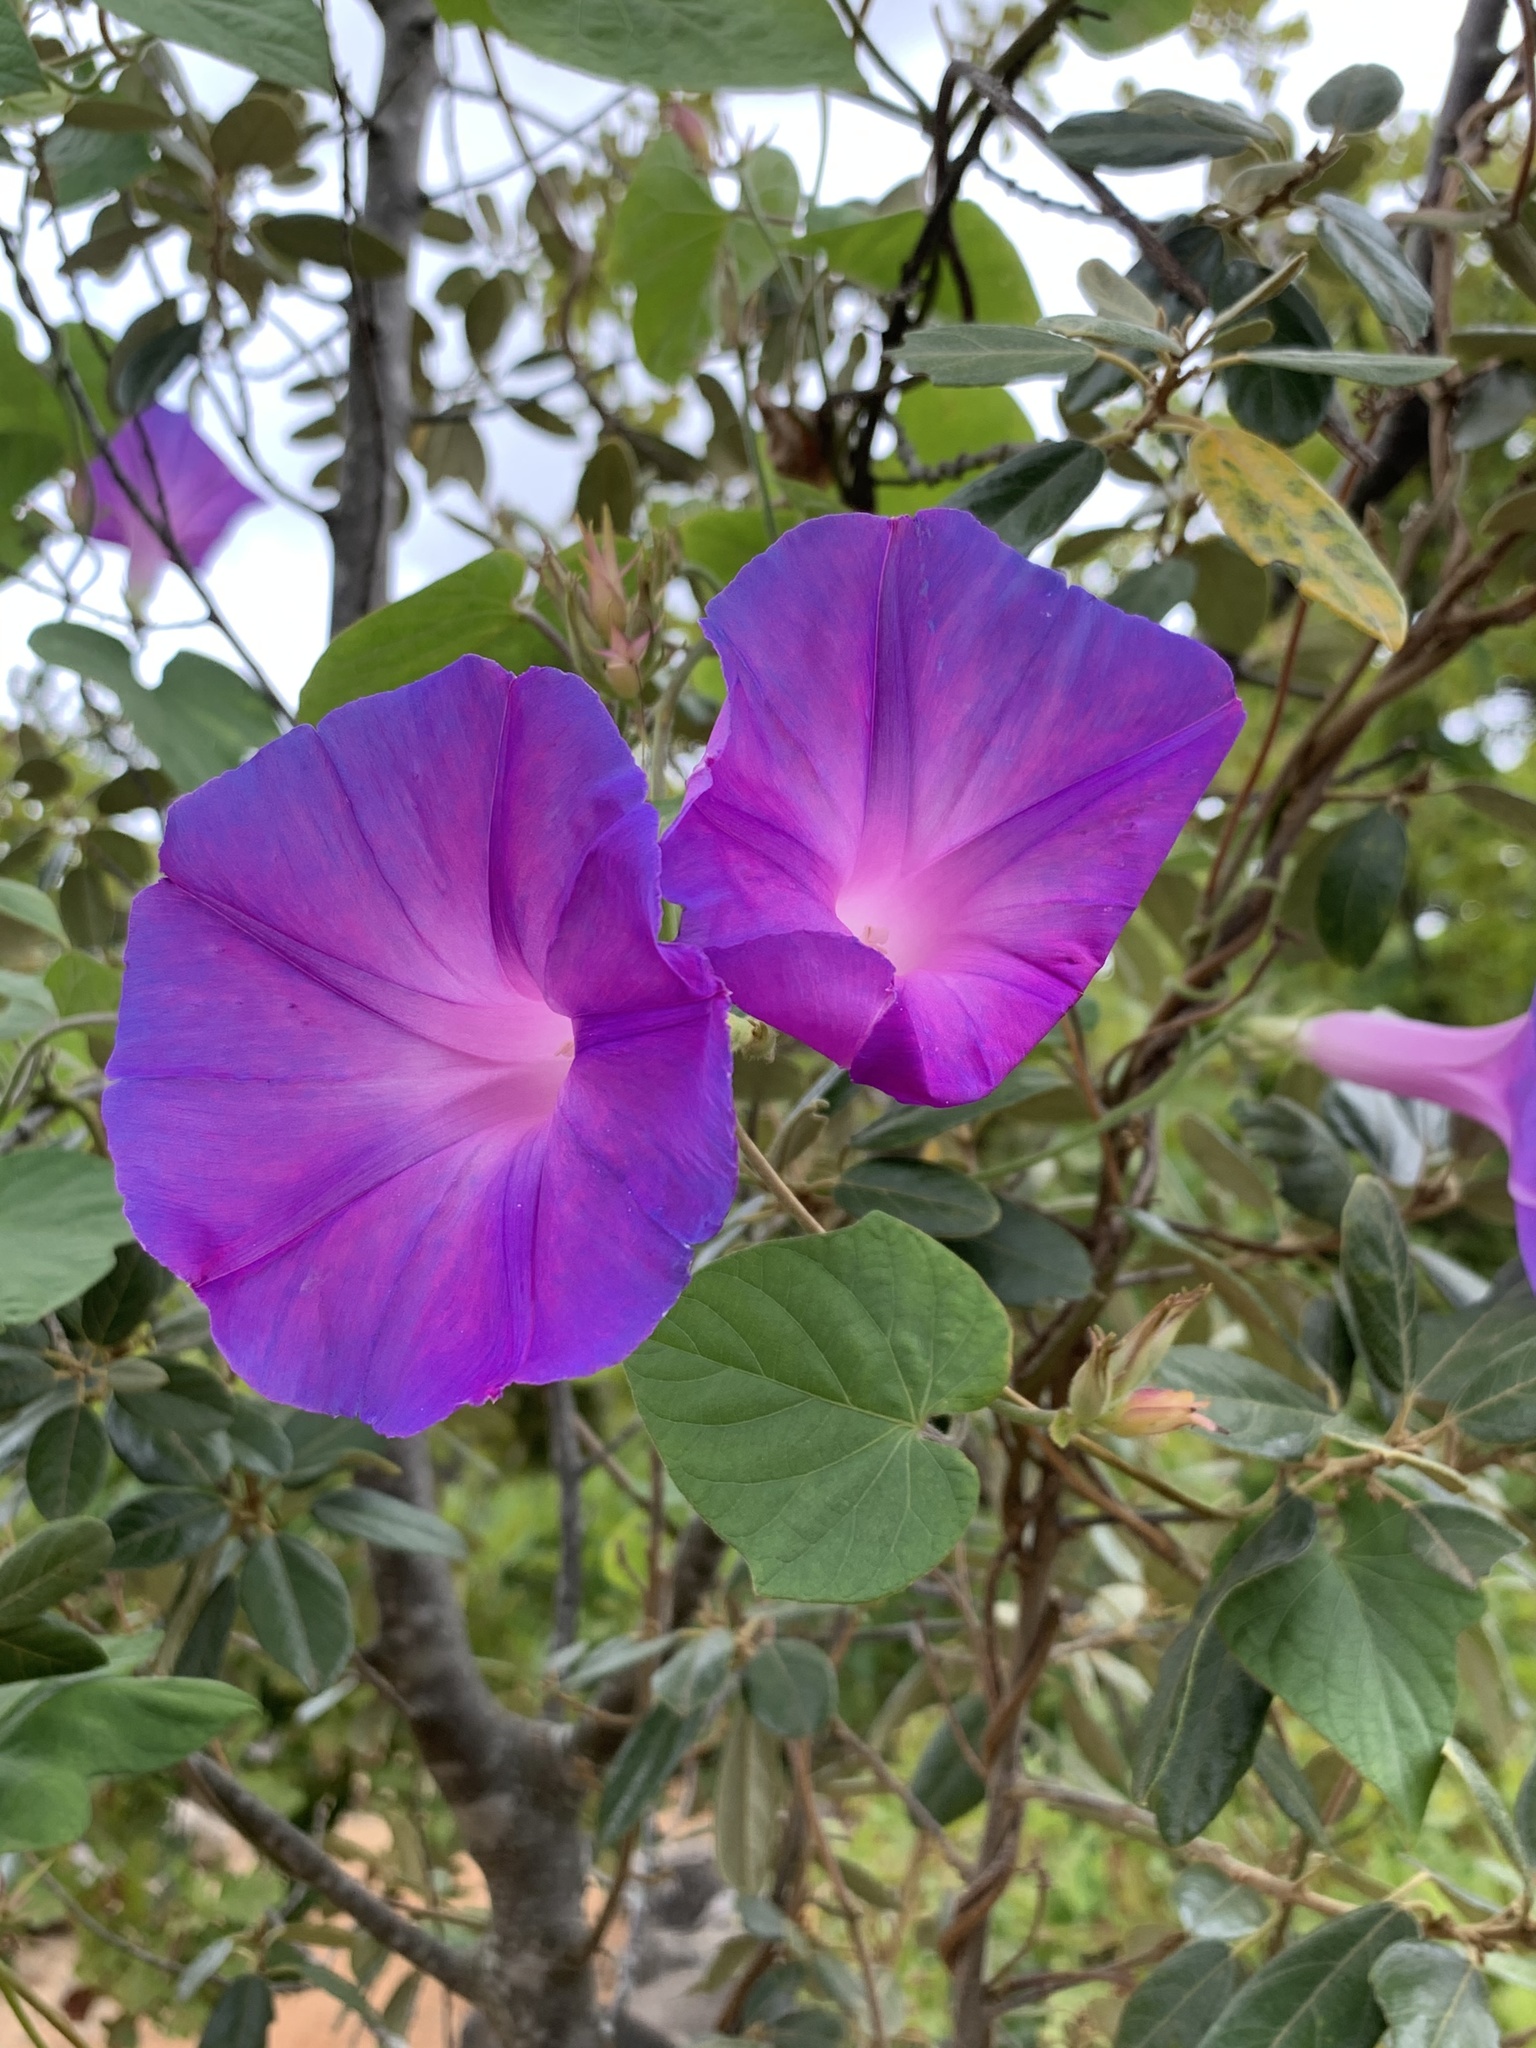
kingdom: Plantae
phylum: Tracheophyta
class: Magnoliopsida
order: Solanales
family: Convolvulaceae
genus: Ipomoea
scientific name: Ipomoea indica
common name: Blue dawnflower
